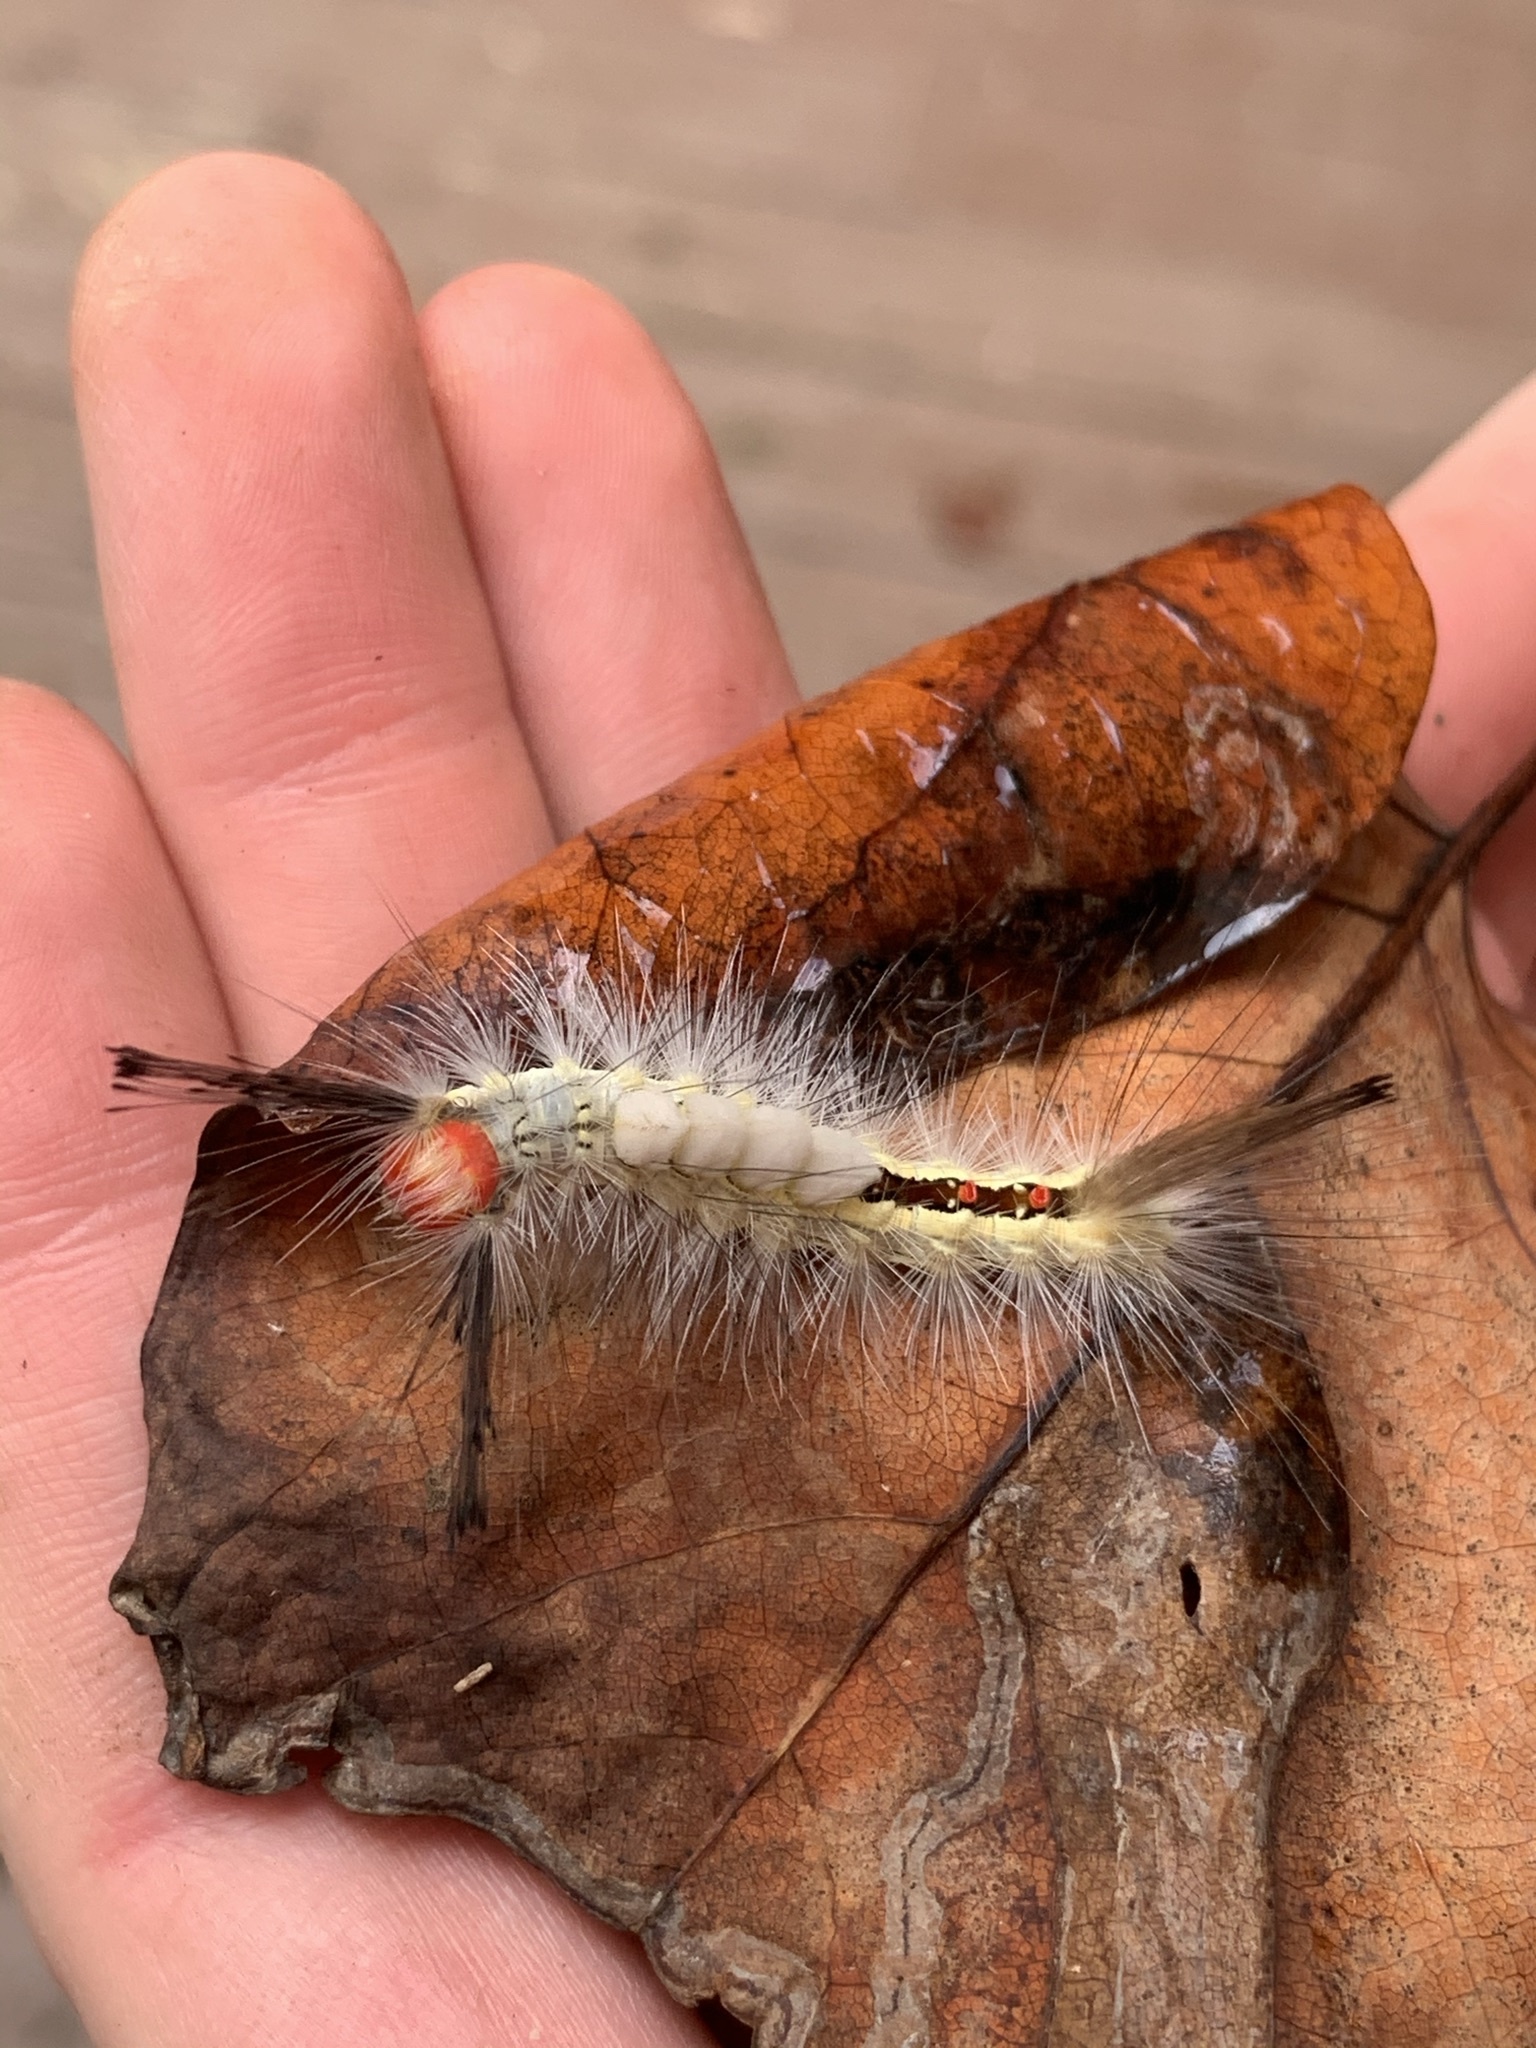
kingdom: Animalia
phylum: Arthropoda
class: Insecta
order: Lepidoptera
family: Erebidae
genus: Orgyia
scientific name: Orgyia leucostigma
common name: White-marked tussock moth
